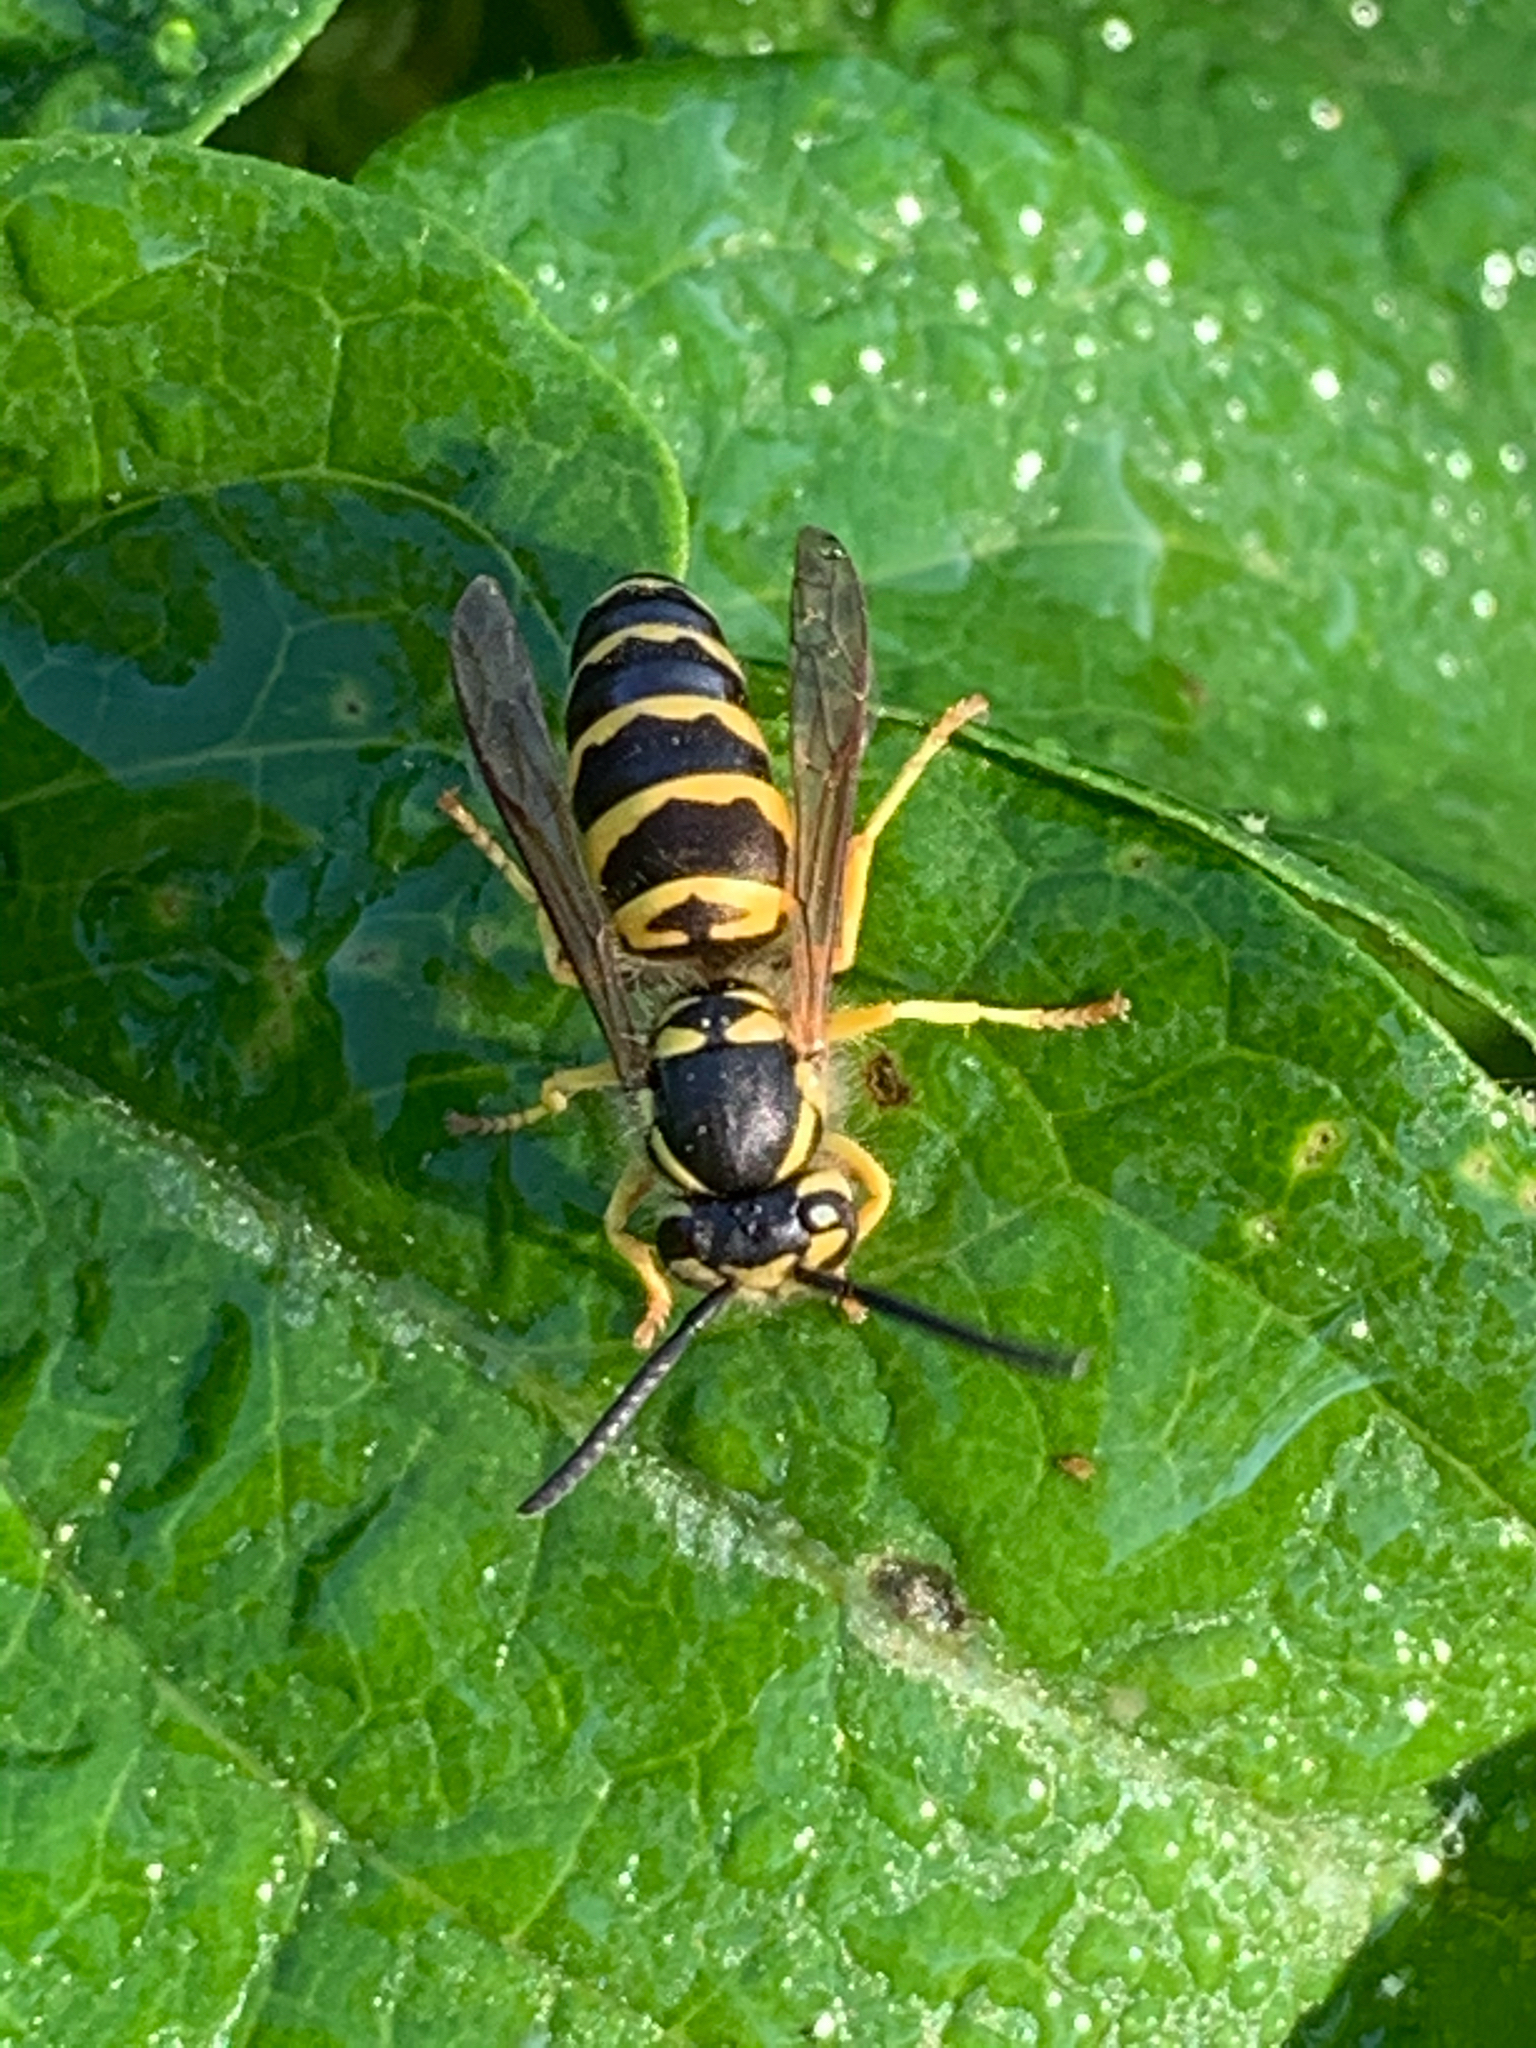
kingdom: Animalia
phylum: Arthropoda
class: Insecta
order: Hymenoptera
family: Vespidae
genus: Vespula
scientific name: Vespula maculifrons
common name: Eastern yellowjacket
